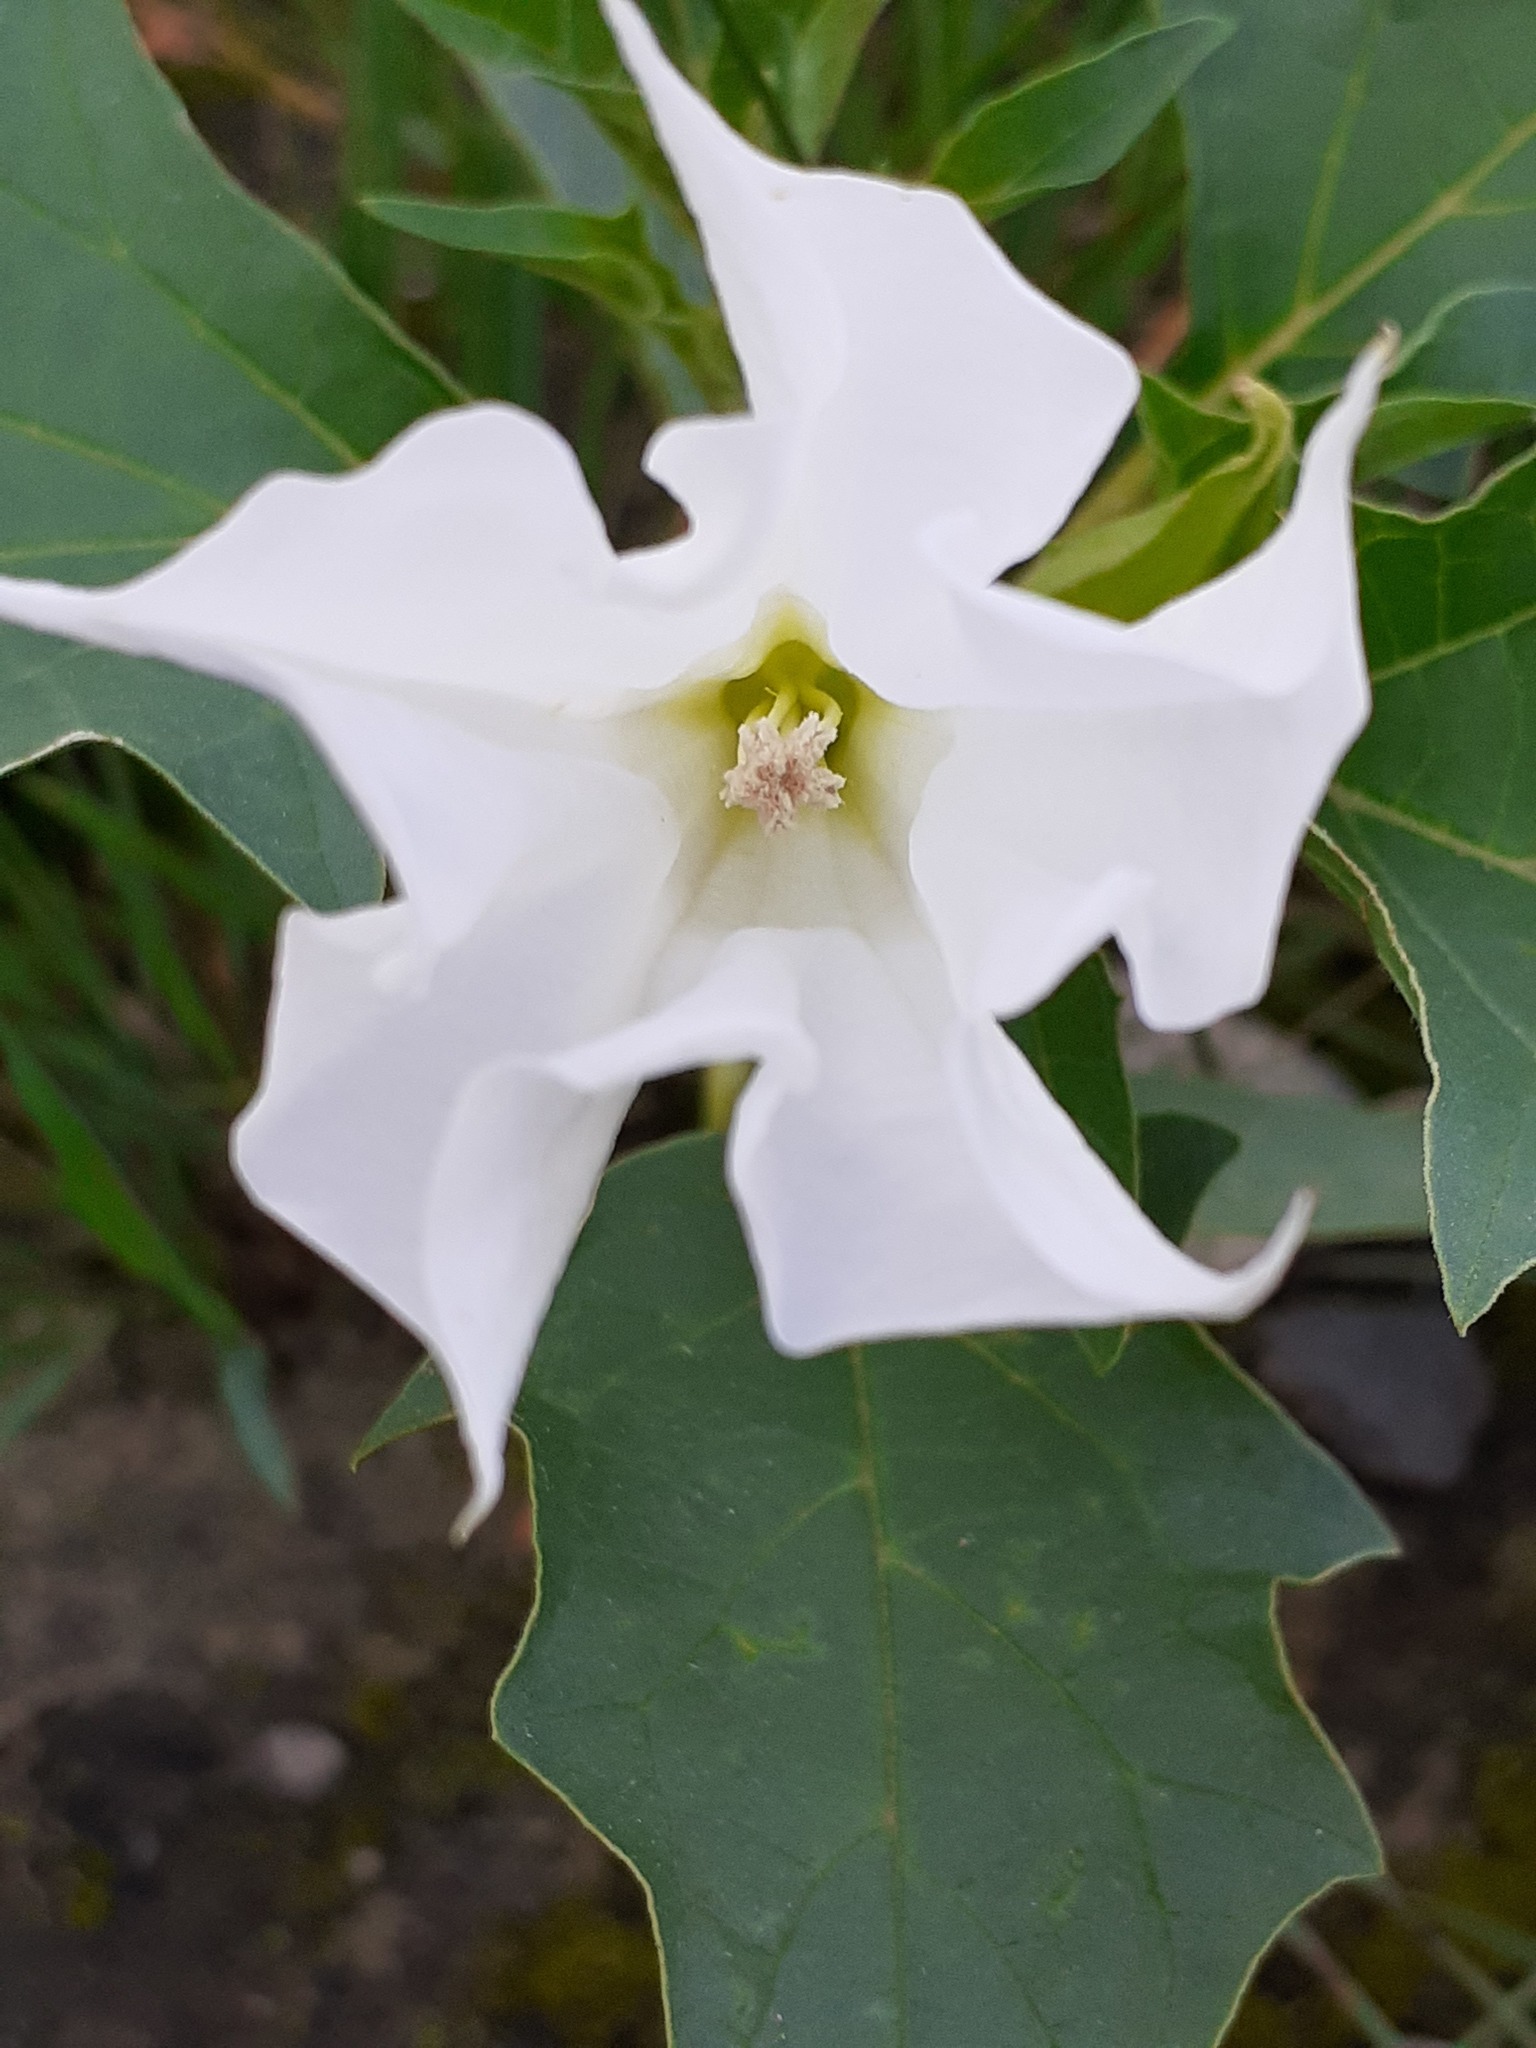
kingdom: Plantae
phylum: Tracheophyta
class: Magnoliopsida
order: Solanales
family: Solanaceae
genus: Datura
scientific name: Datura stramonium
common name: Thorn-apple
